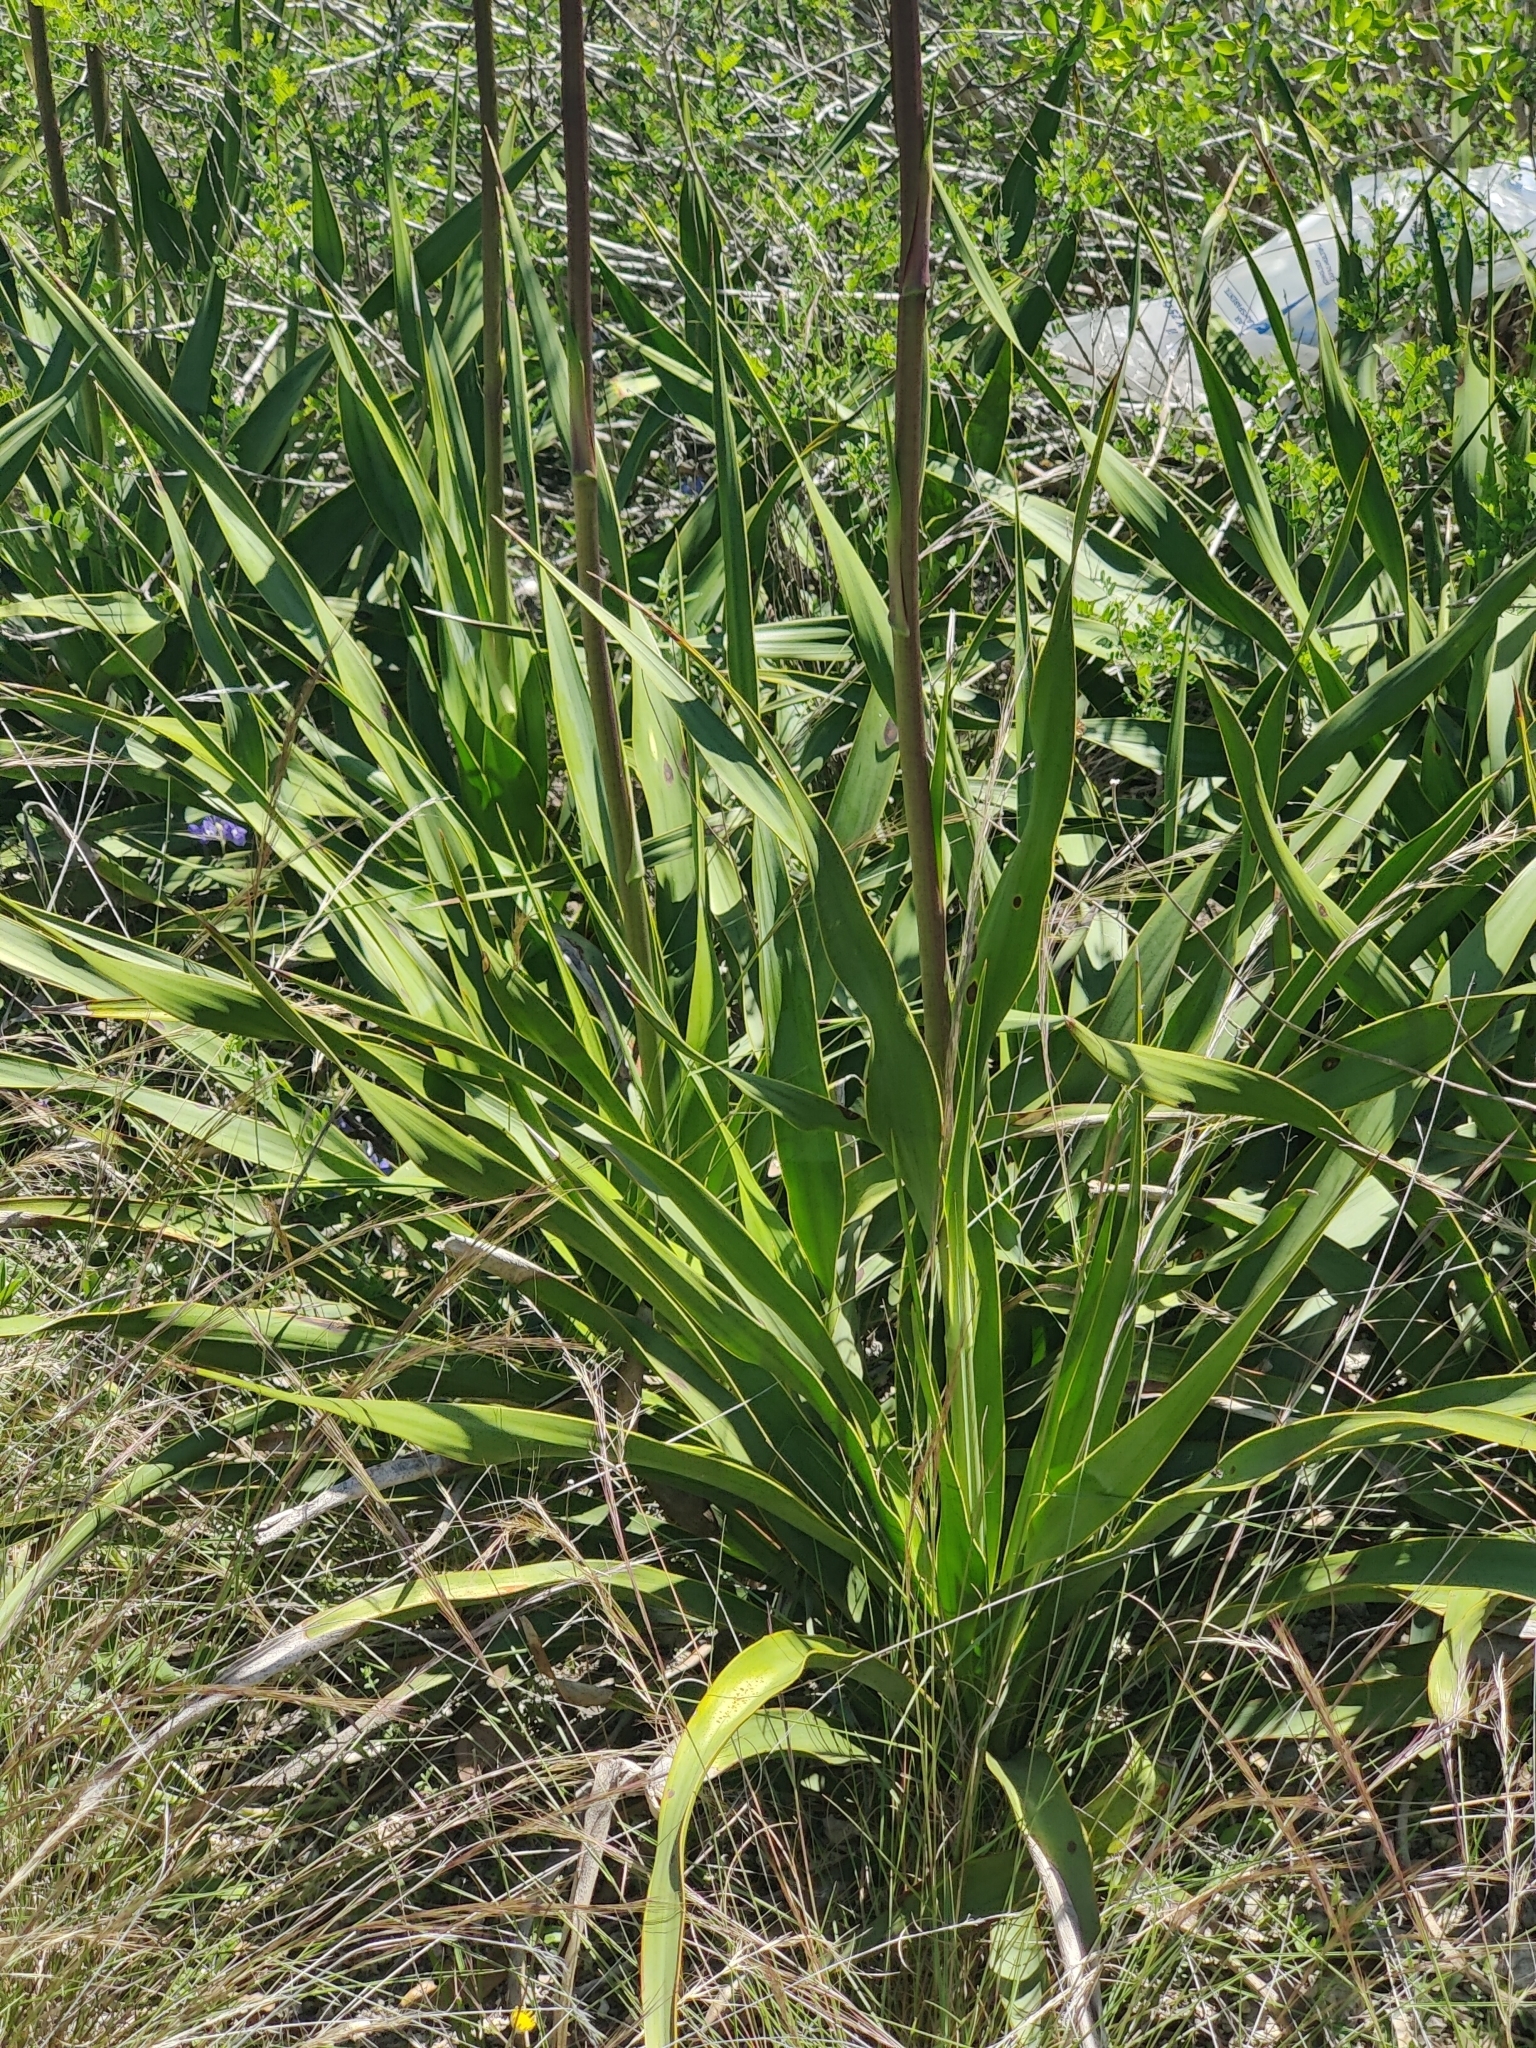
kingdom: Plantae
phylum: Tracheophyta
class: Liliopsida
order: Asparagales
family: Asparagaceae
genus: Yucca
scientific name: Yucca rupicola
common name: Twisted-leaf spanish-dagger
